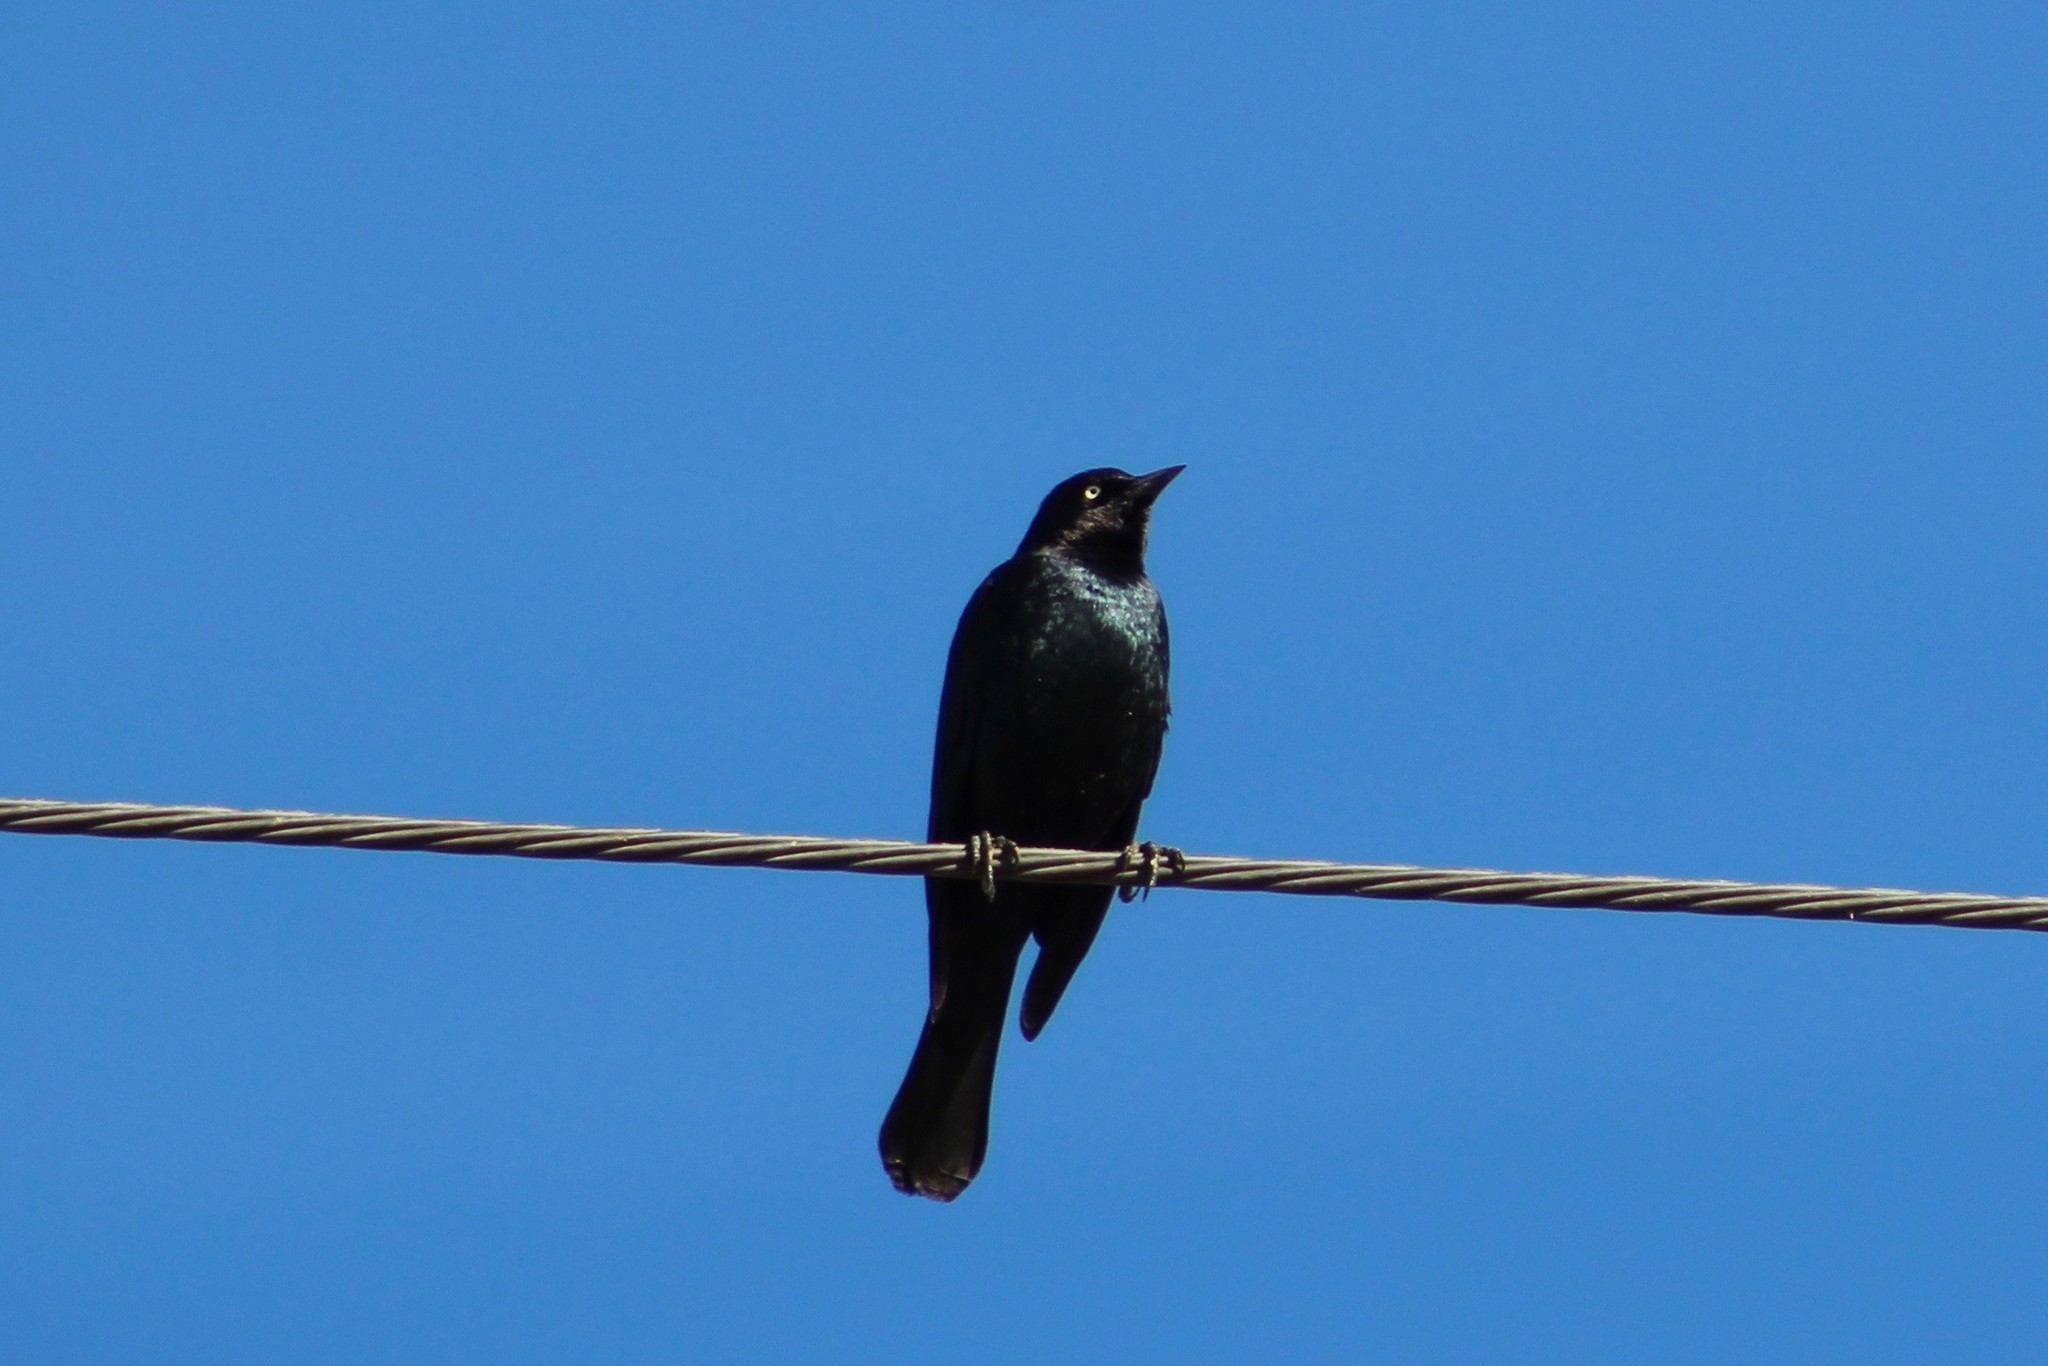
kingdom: Animalia
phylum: Chordata
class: Aves
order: Passeriformes
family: Icteridae
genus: Euphagus
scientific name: Euphagus cyanocephalus
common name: Brewer's blackbird
